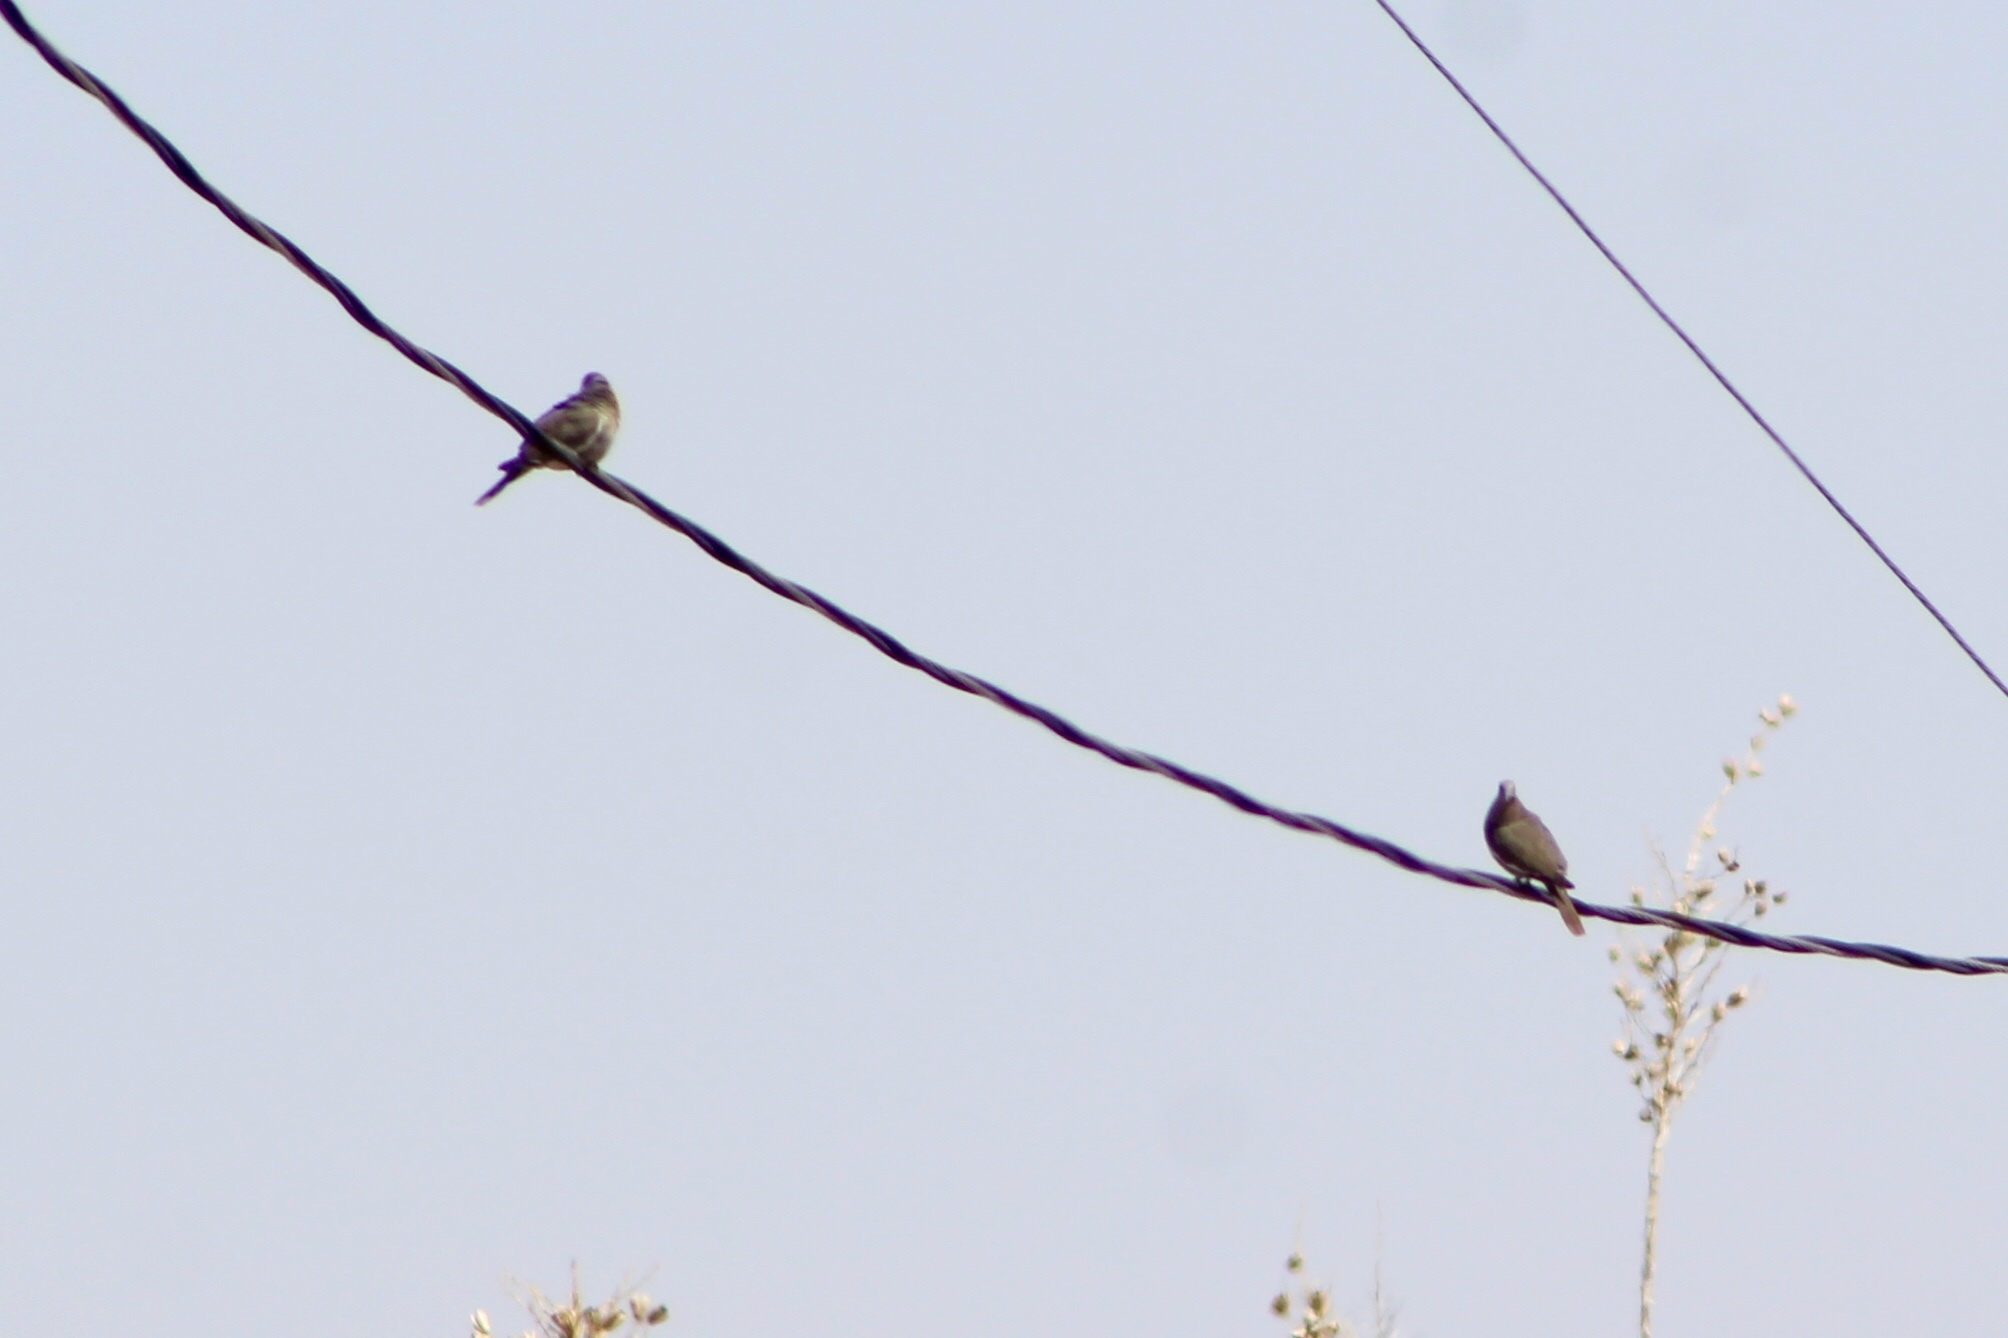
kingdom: Animalia
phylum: Chordata
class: Aves
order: Columbiformes
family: Columbidae
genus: Zenaida
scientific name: Zenaida asiatica
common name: White-winged dove
